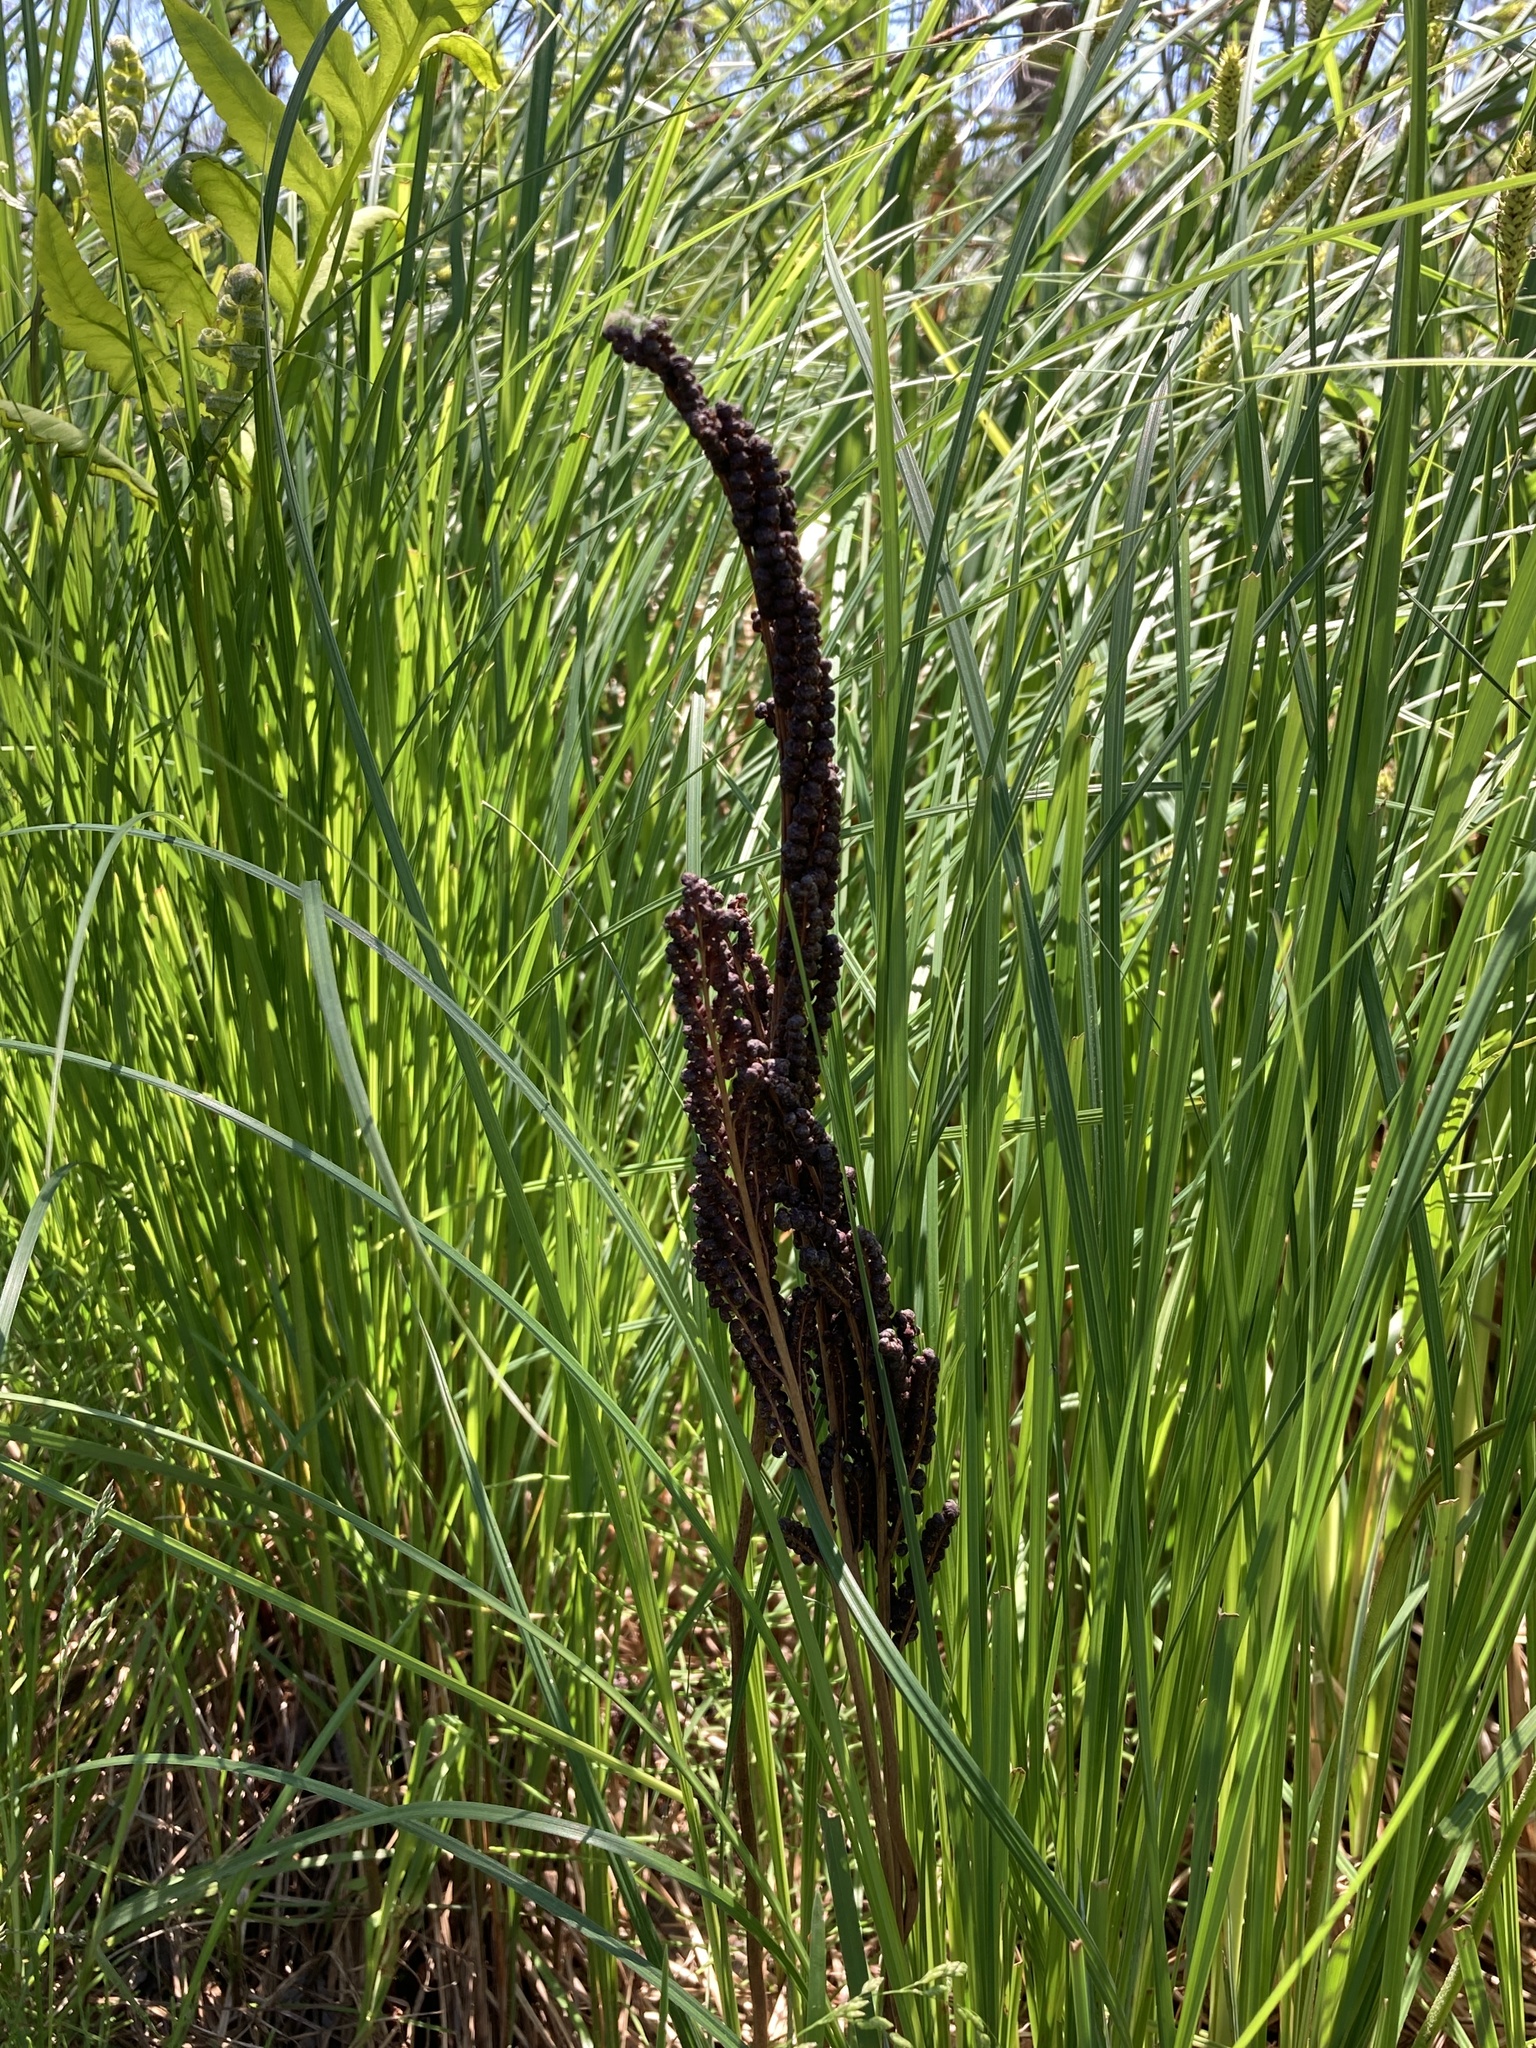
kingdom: Plantae
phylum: Tracheophyta
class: Polypodiopsida
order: Polypodiales
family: Onocleaceae
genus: Onoclea
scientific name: Onoclea sensibilis
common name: Sensitive fern
